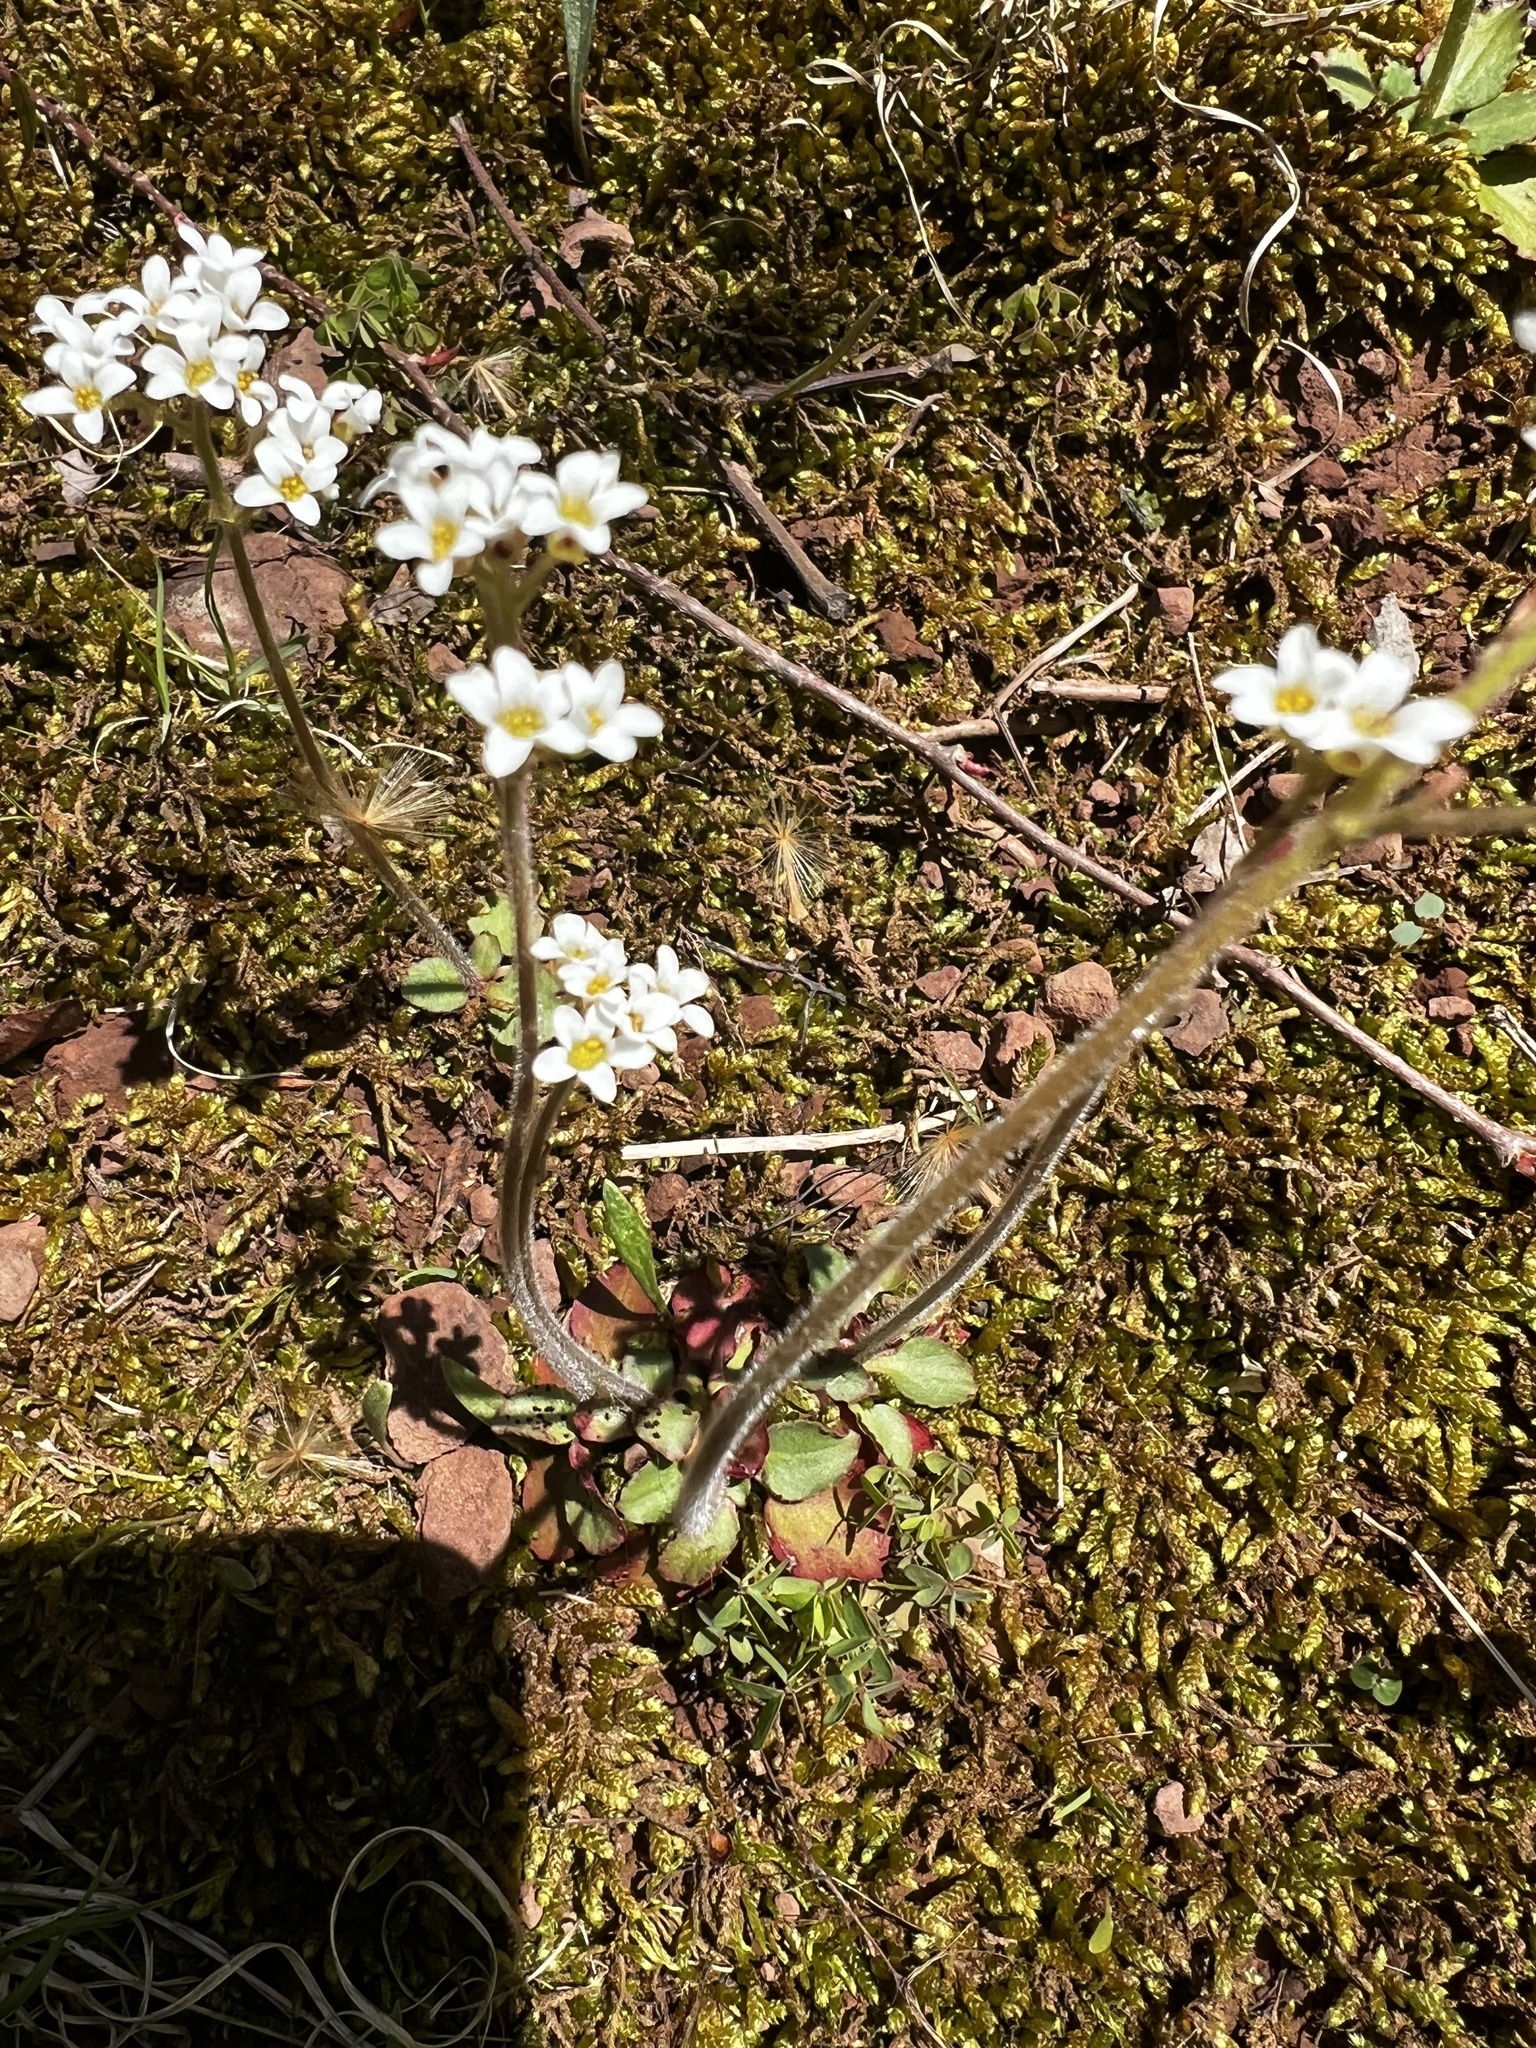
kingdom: Plantae
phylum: Tracheophyta
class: Magnoliopsida
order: Saxifragales
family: Saxifragaceae
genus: Micranthes
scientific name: Micranthes virginiensis
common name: Early saxifrage
